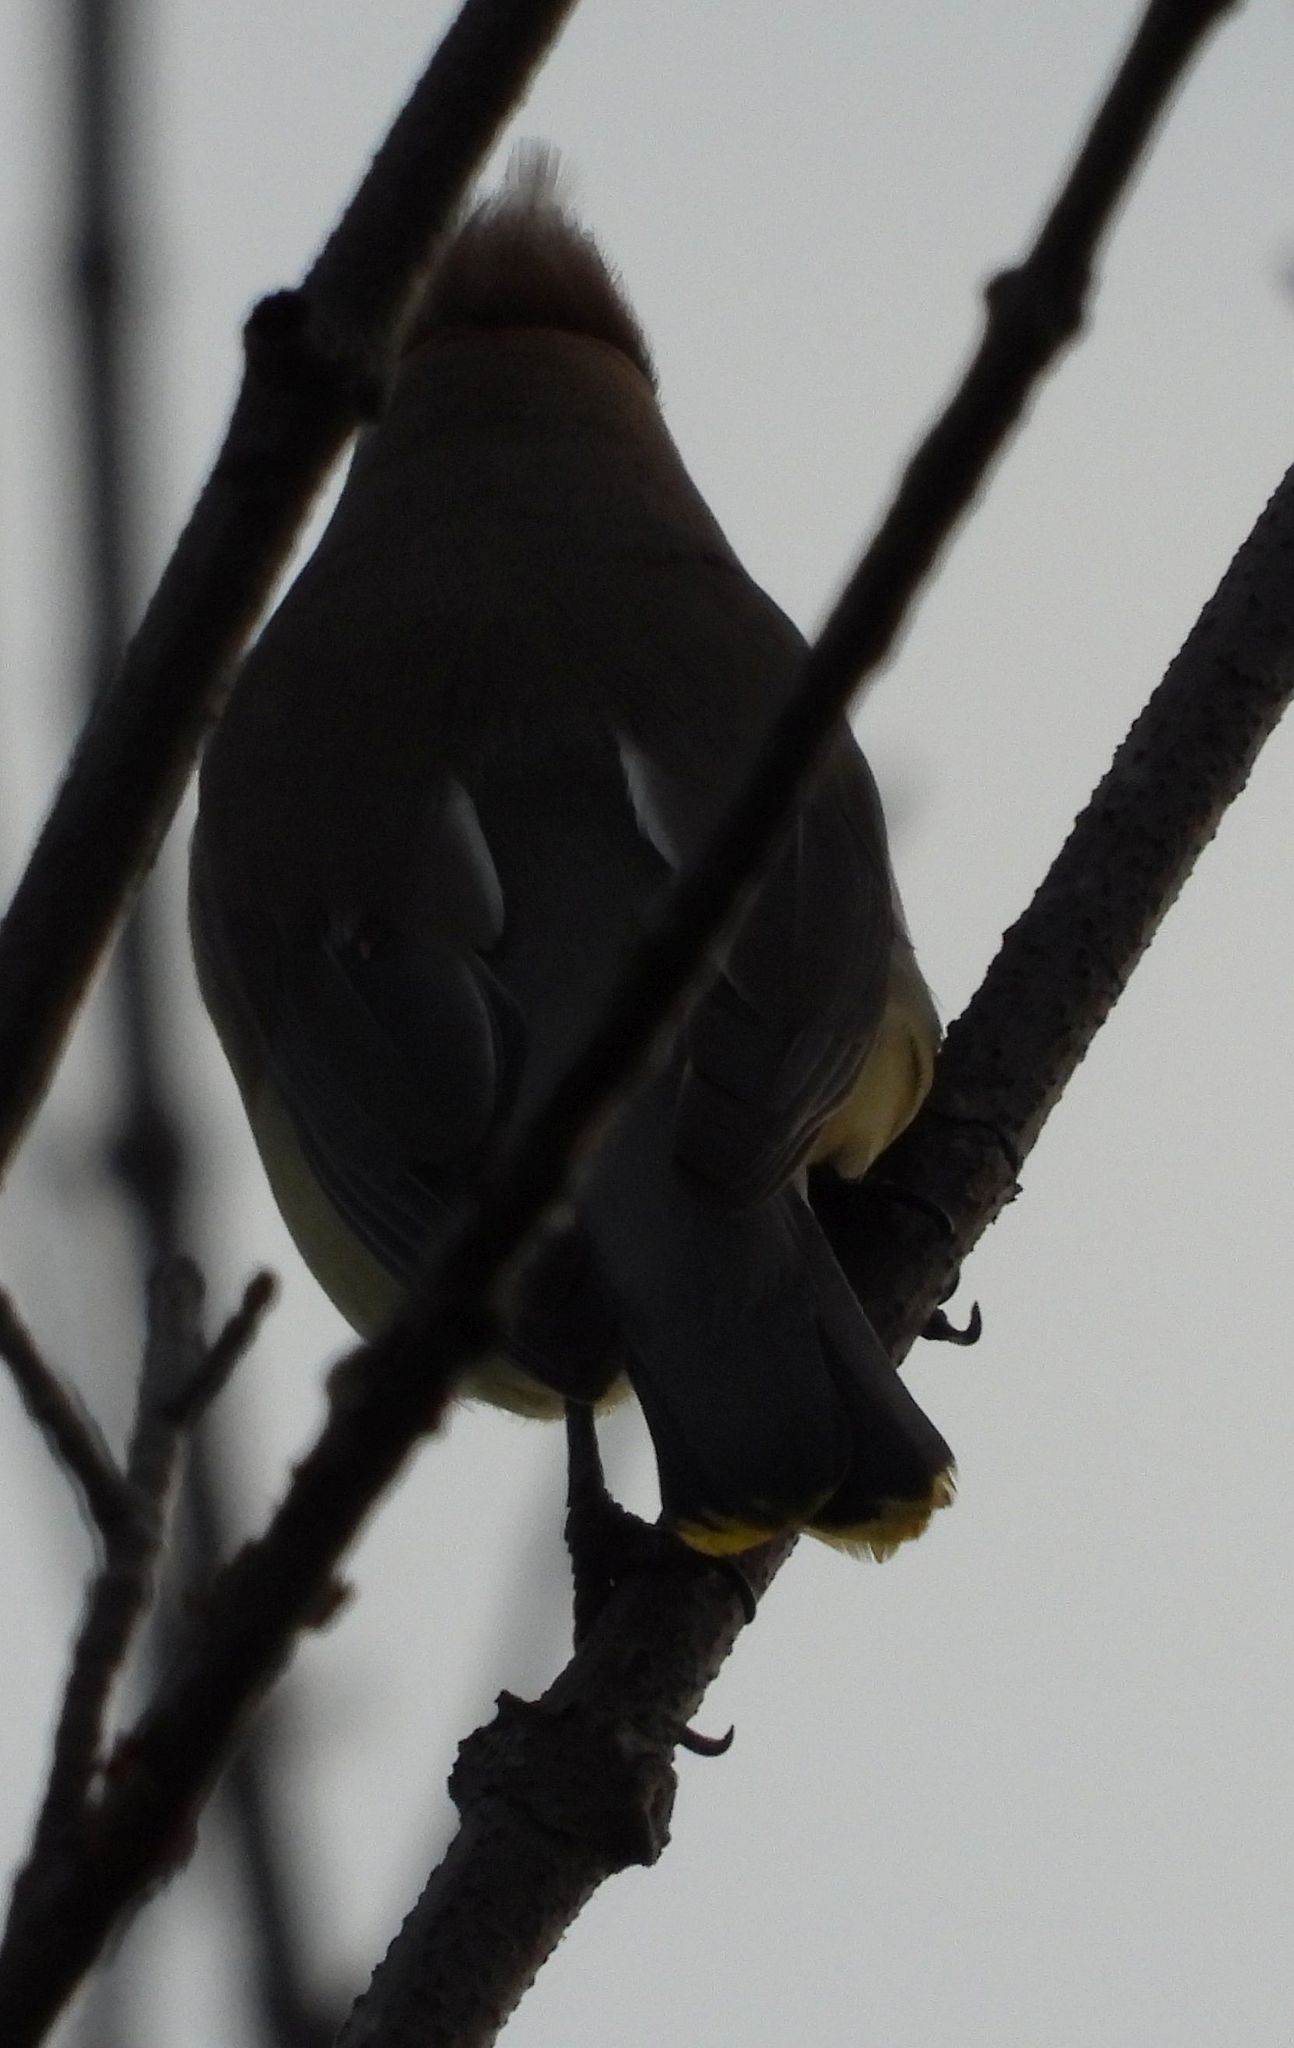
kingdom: Animalia
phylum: Chordata
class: Aves
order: Passeriformes
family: Bombycillidae
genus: Bombycilla
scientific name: Bombycilla cedrorum
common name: Cedar waxwing
